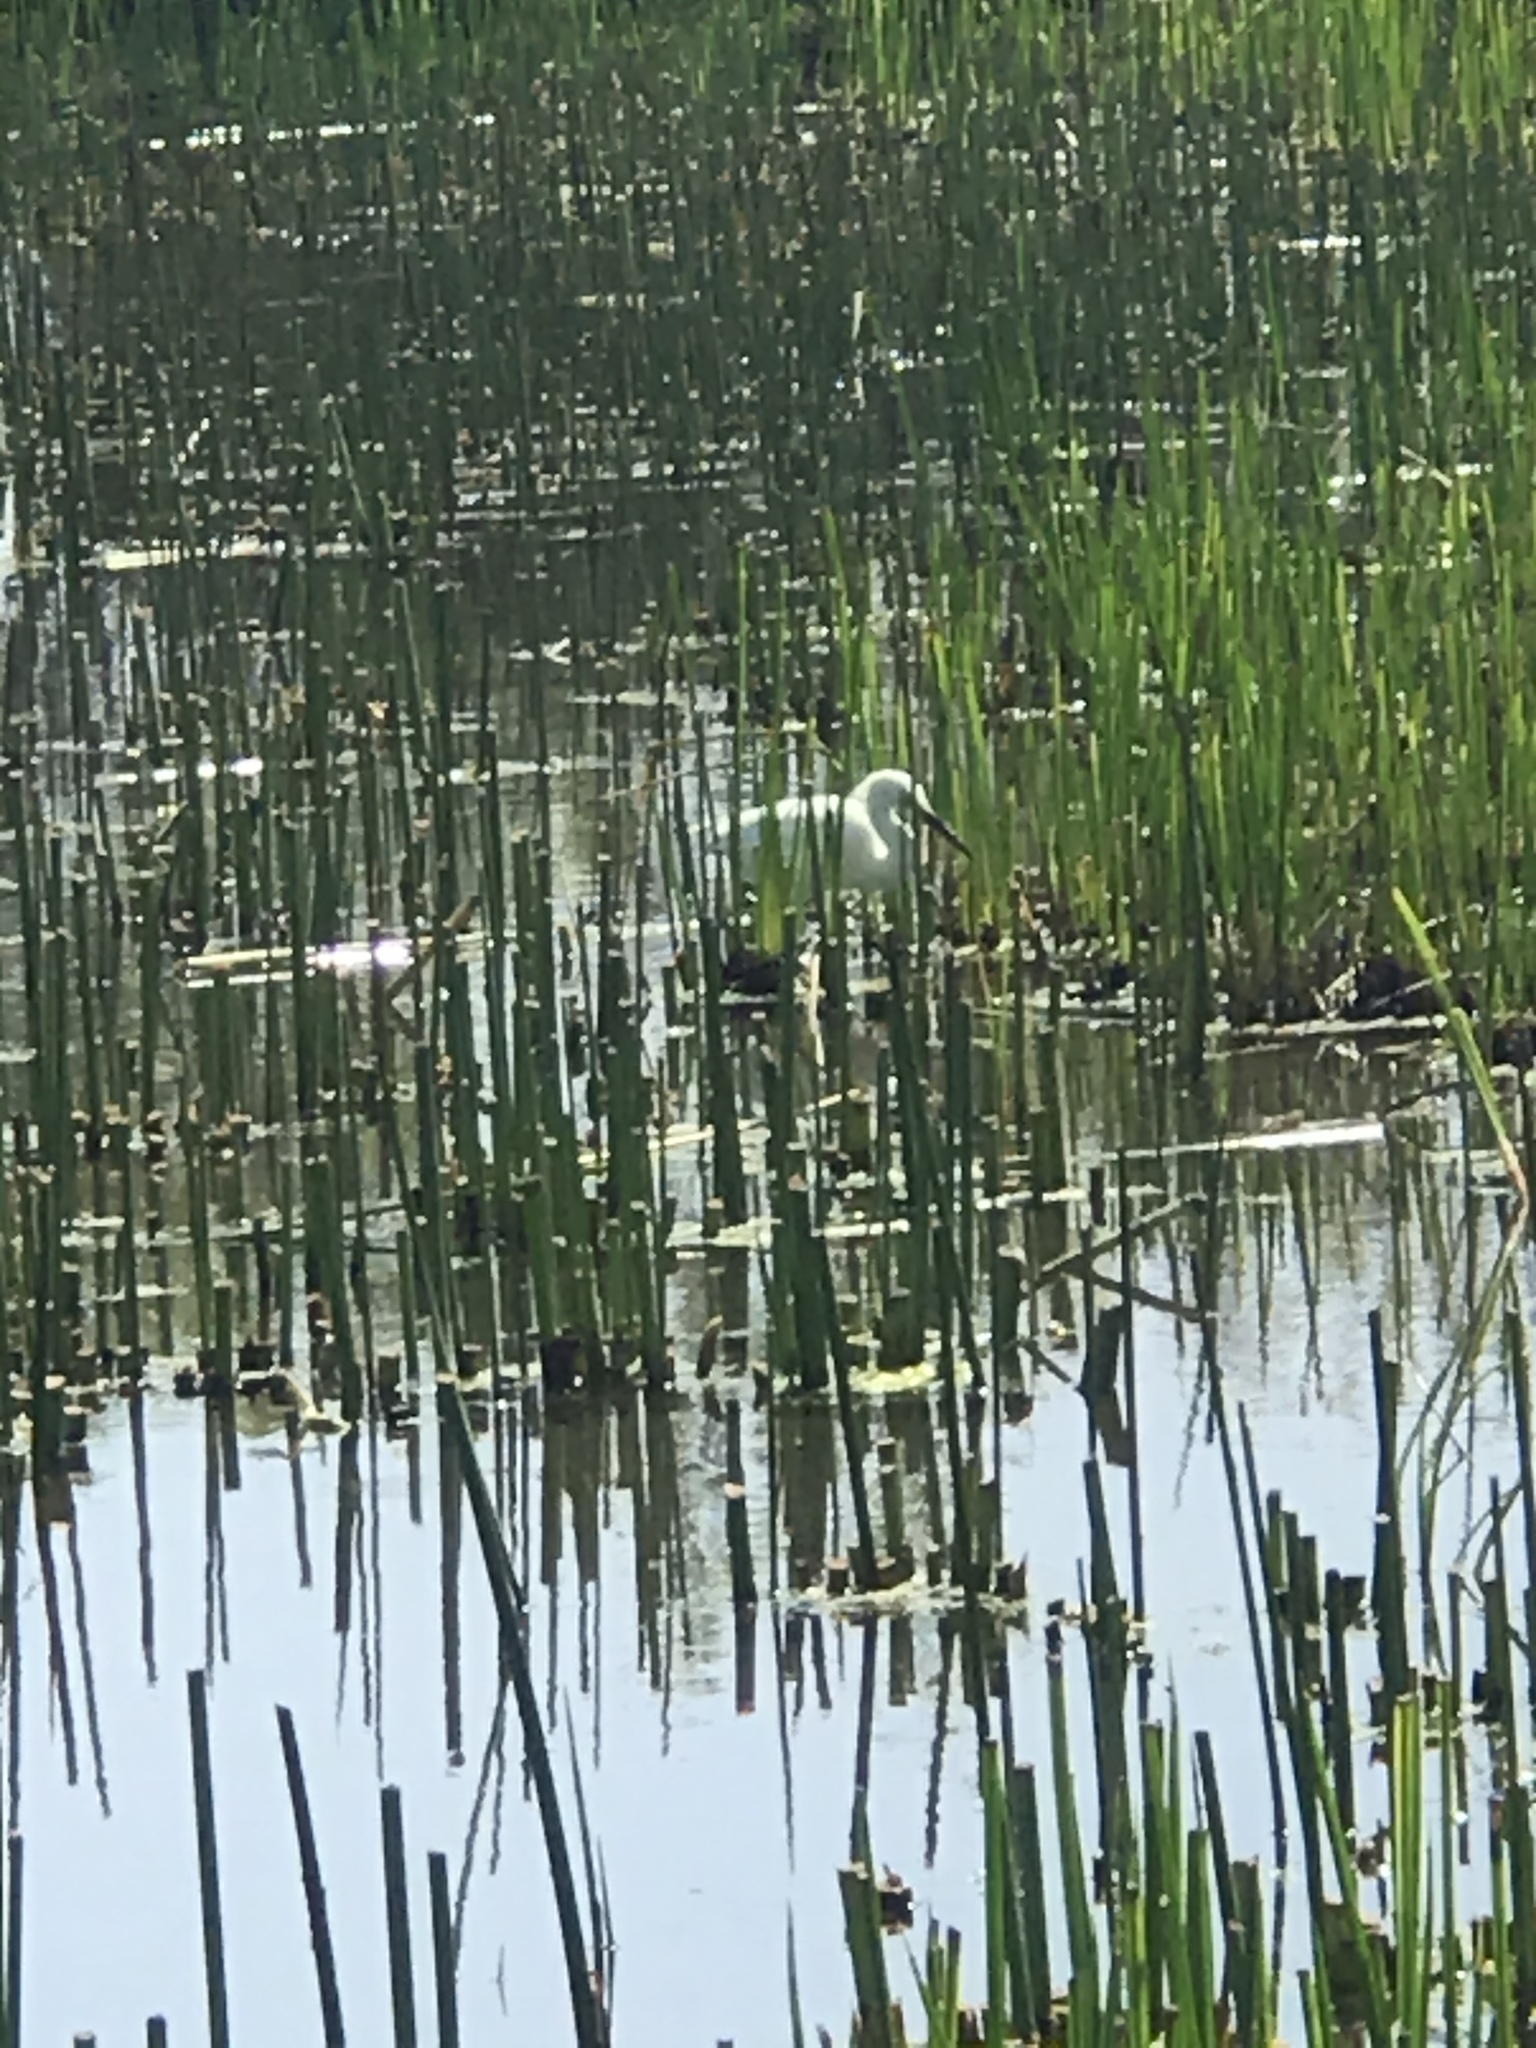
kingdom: Animalia
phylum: Chordata
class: Aves
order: Pelecaniformes
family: Ardeidae
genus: Egretta
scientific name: Egretta thula
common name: Snowy egret
